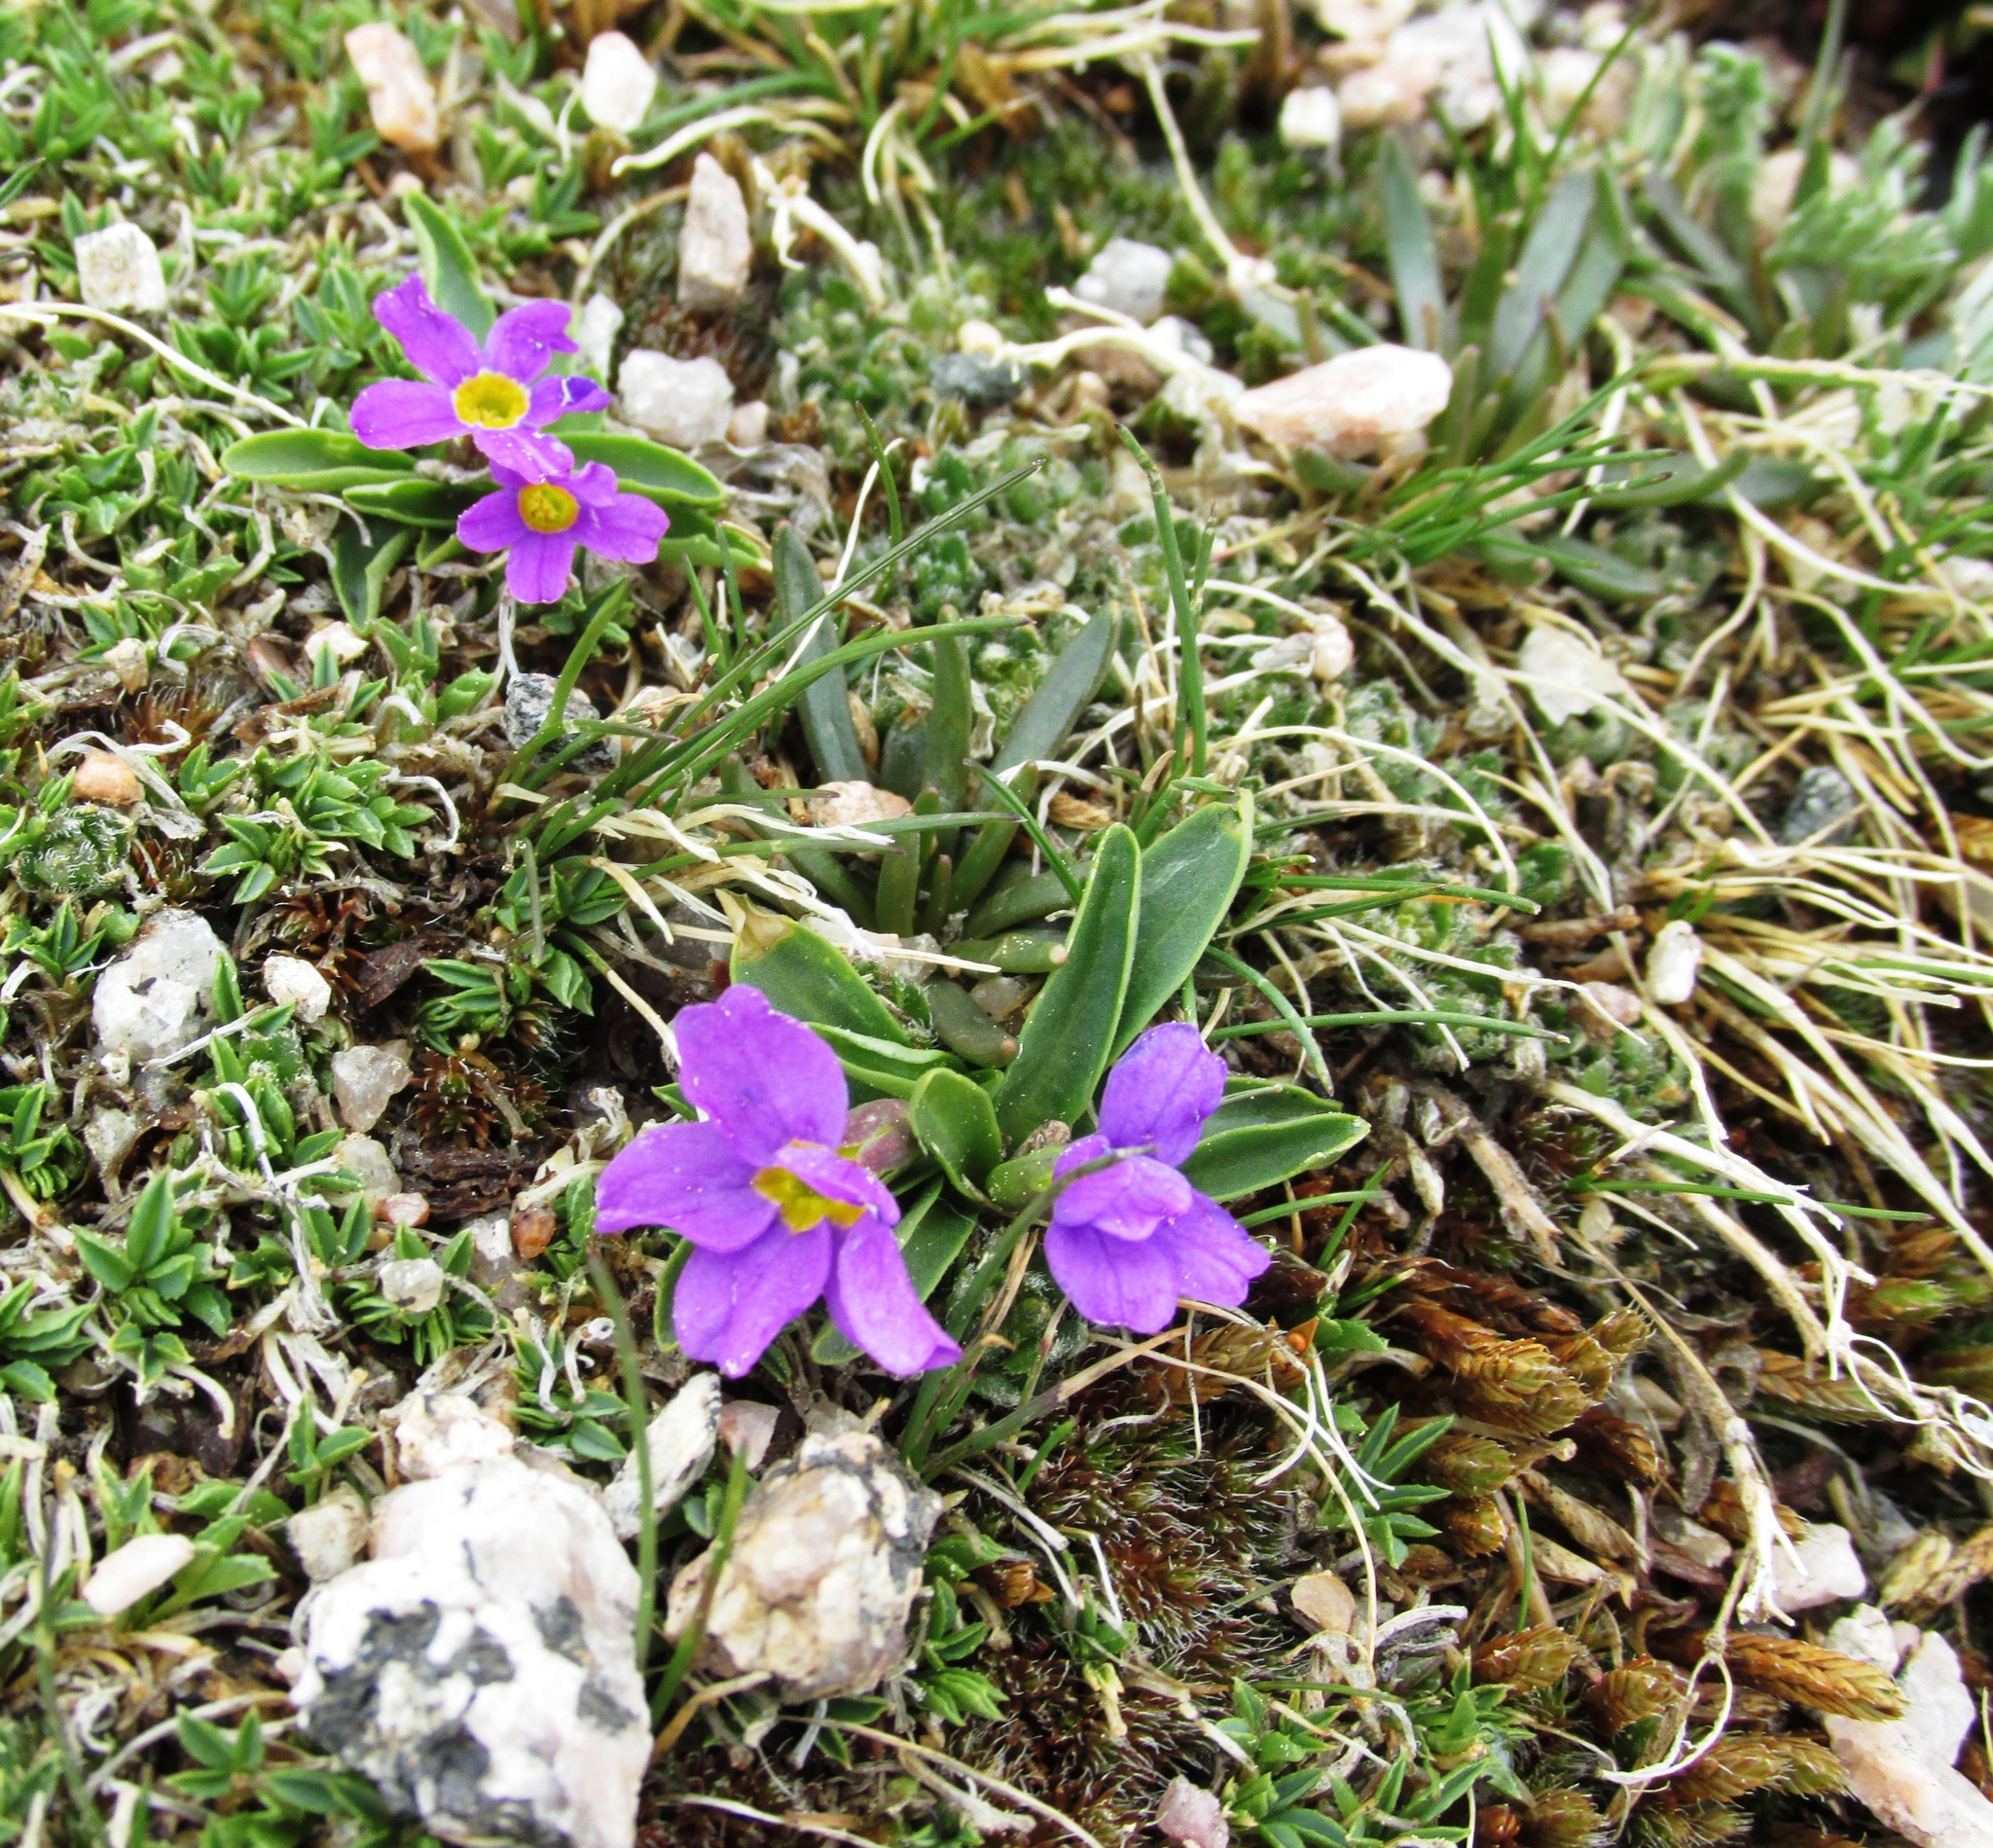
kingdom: Plantae
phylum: Tracheophyta
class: Magnoliopsida
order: Ericales
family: Primulaceae
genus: Primula
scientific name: Primula angustifolia
